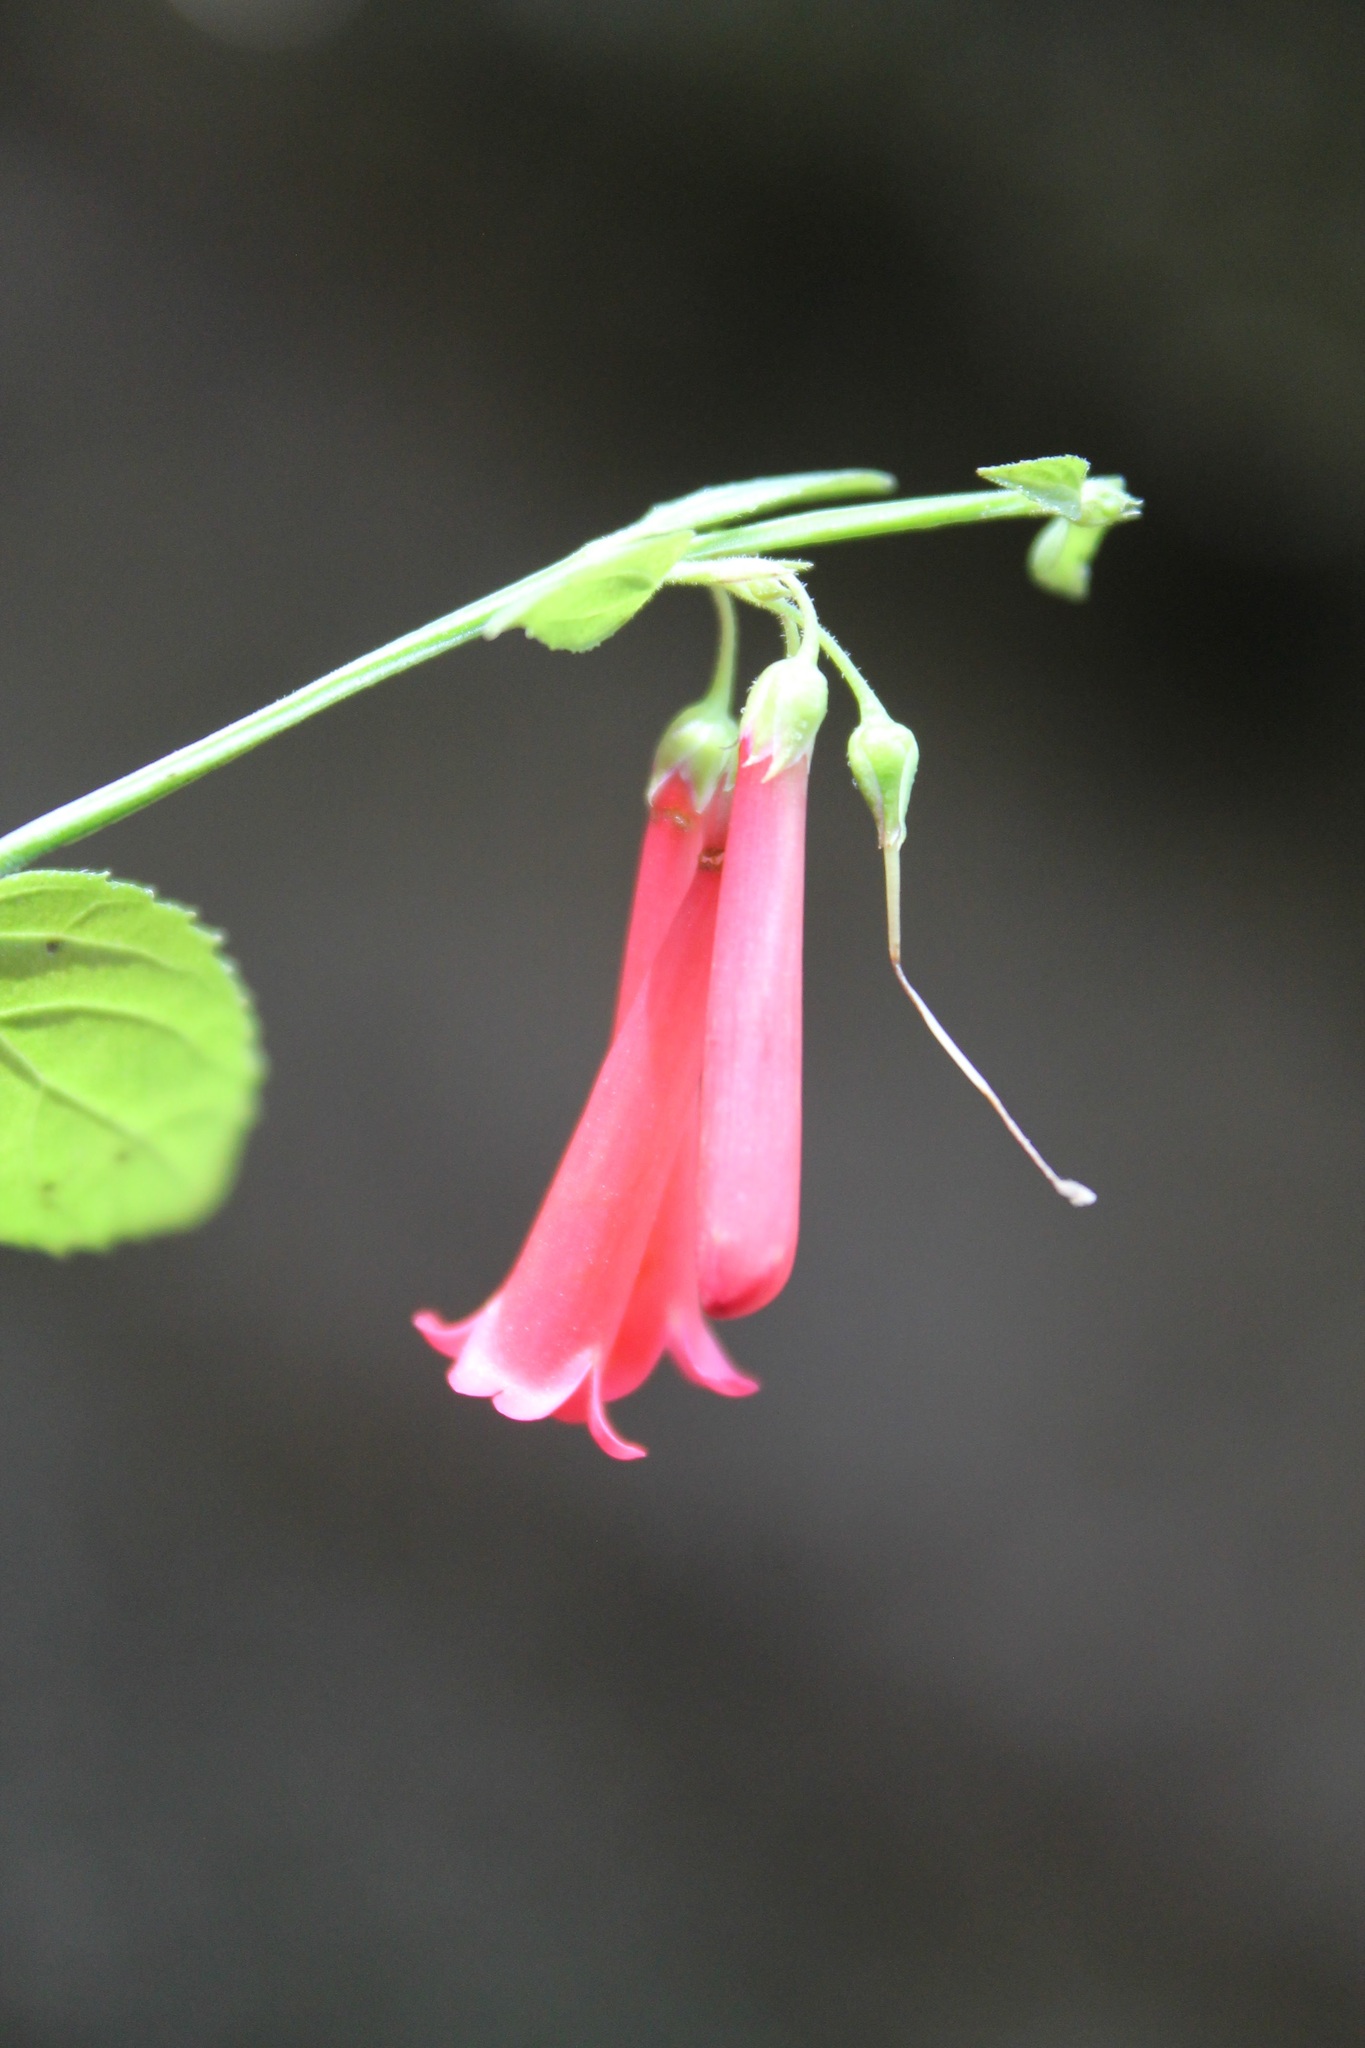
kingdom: Plantae
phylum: Tracheophyta
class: Magnoliopsida
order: Lamiales
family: Plantaginaceae
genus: Russelia
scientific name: Russelia sarmentosa
